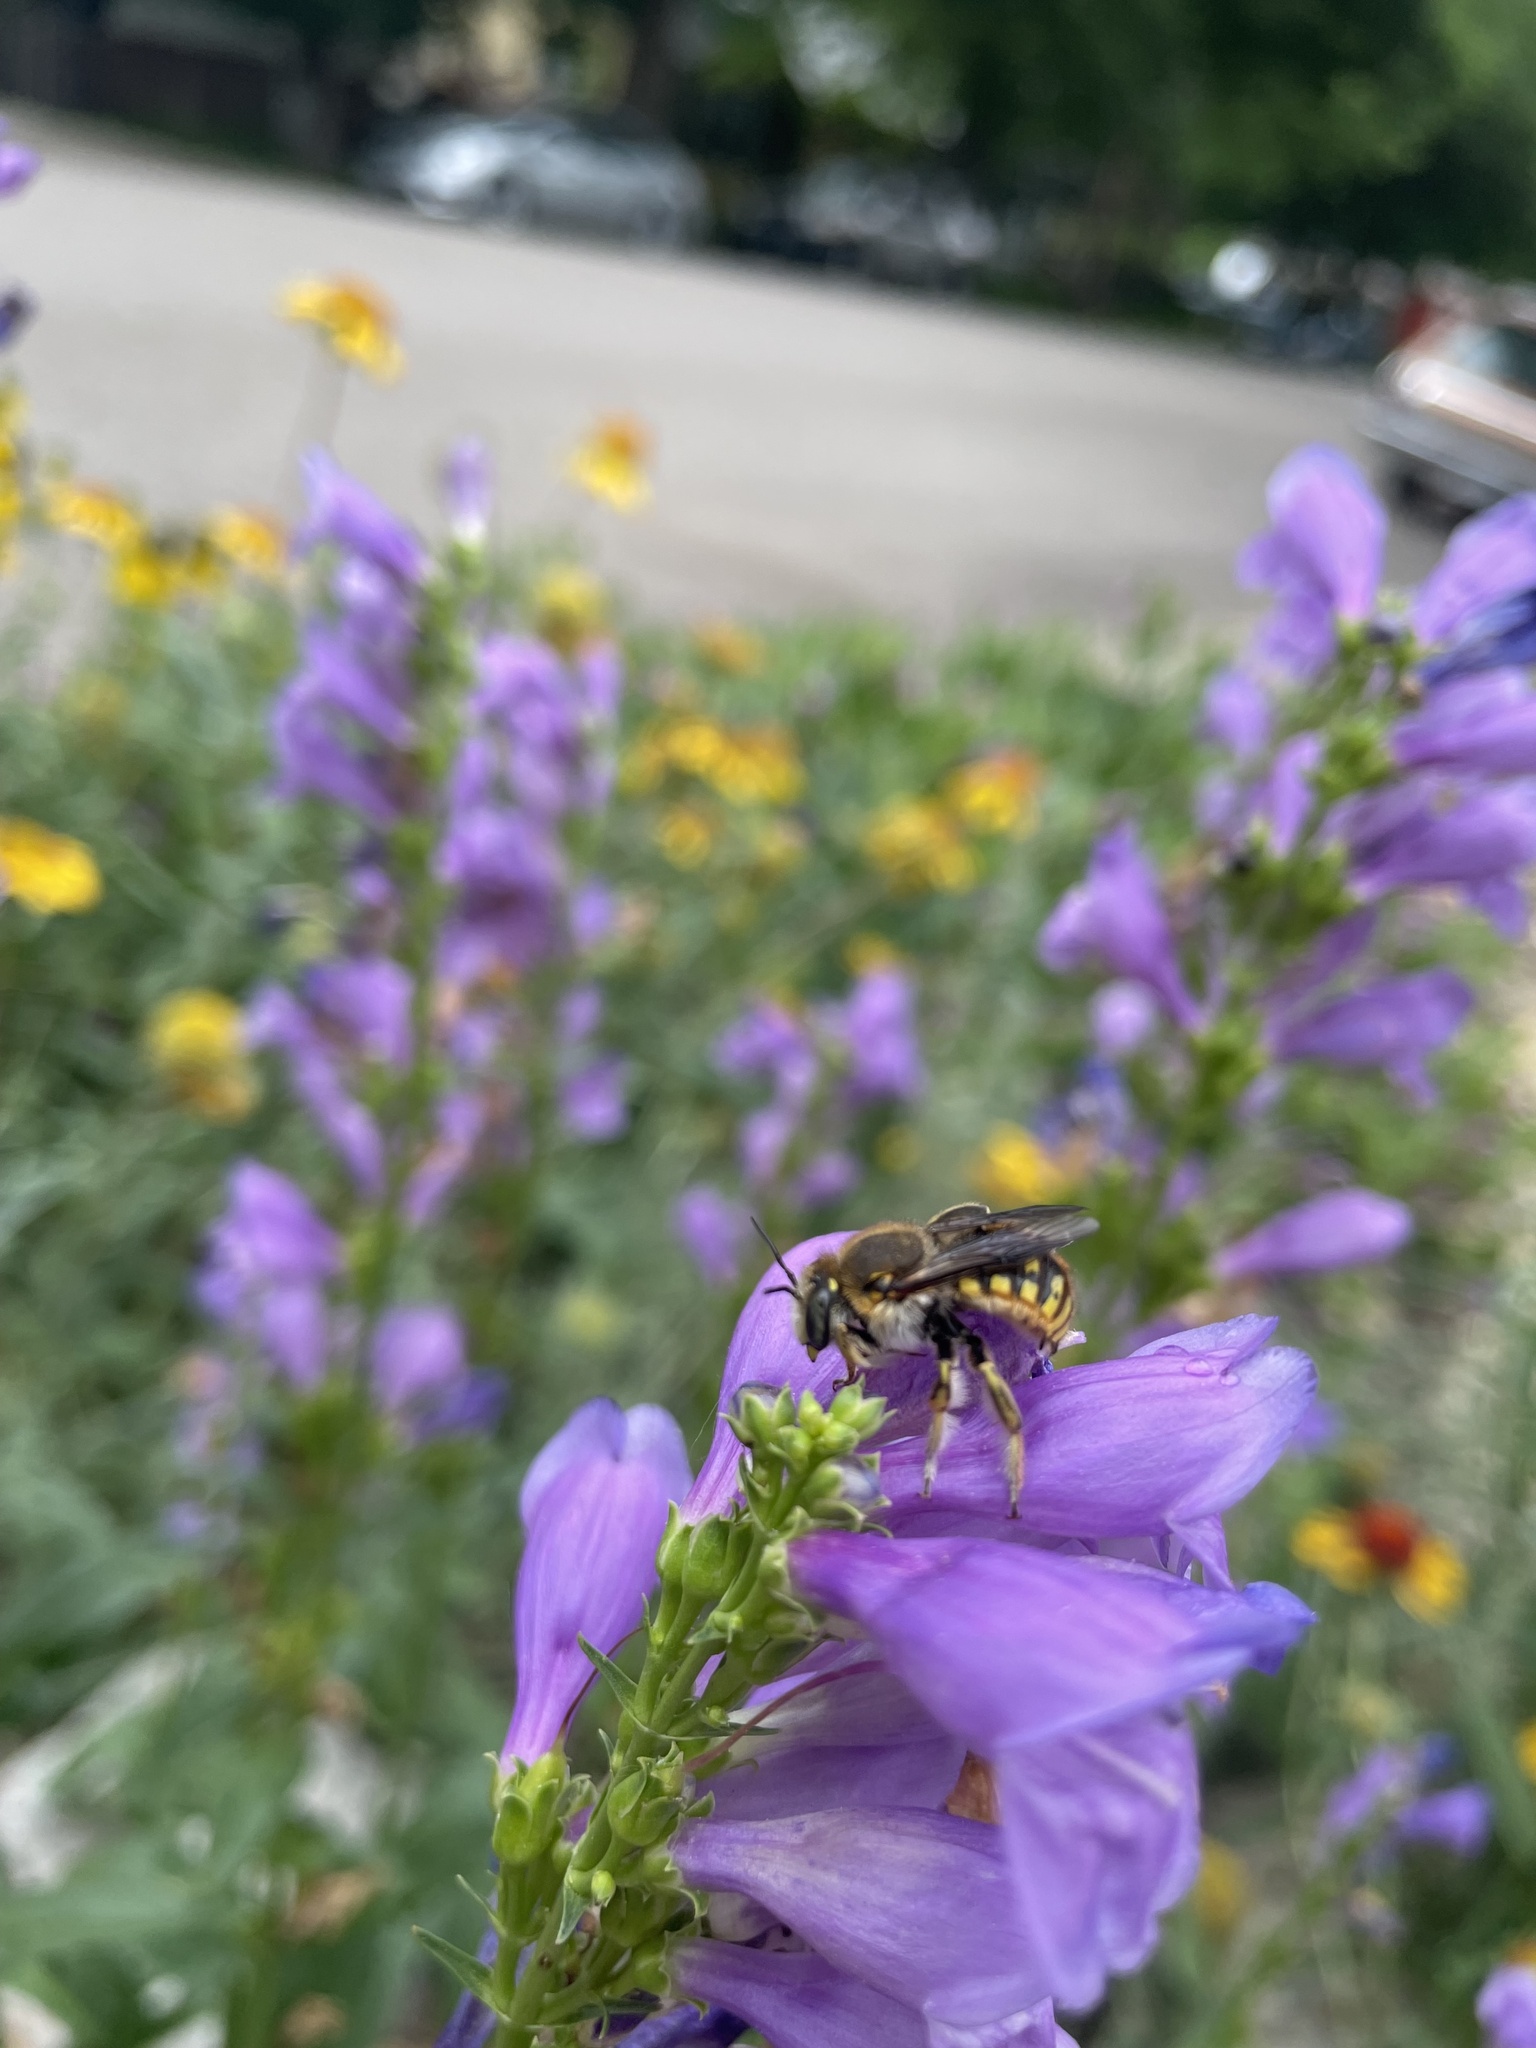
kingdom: Animalia
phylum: Arthropoda
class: Insecta
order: Hymenoptera
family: Megachilidae
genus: Anthidium
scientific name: Anthidium manicatum
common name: Wool carder bee
